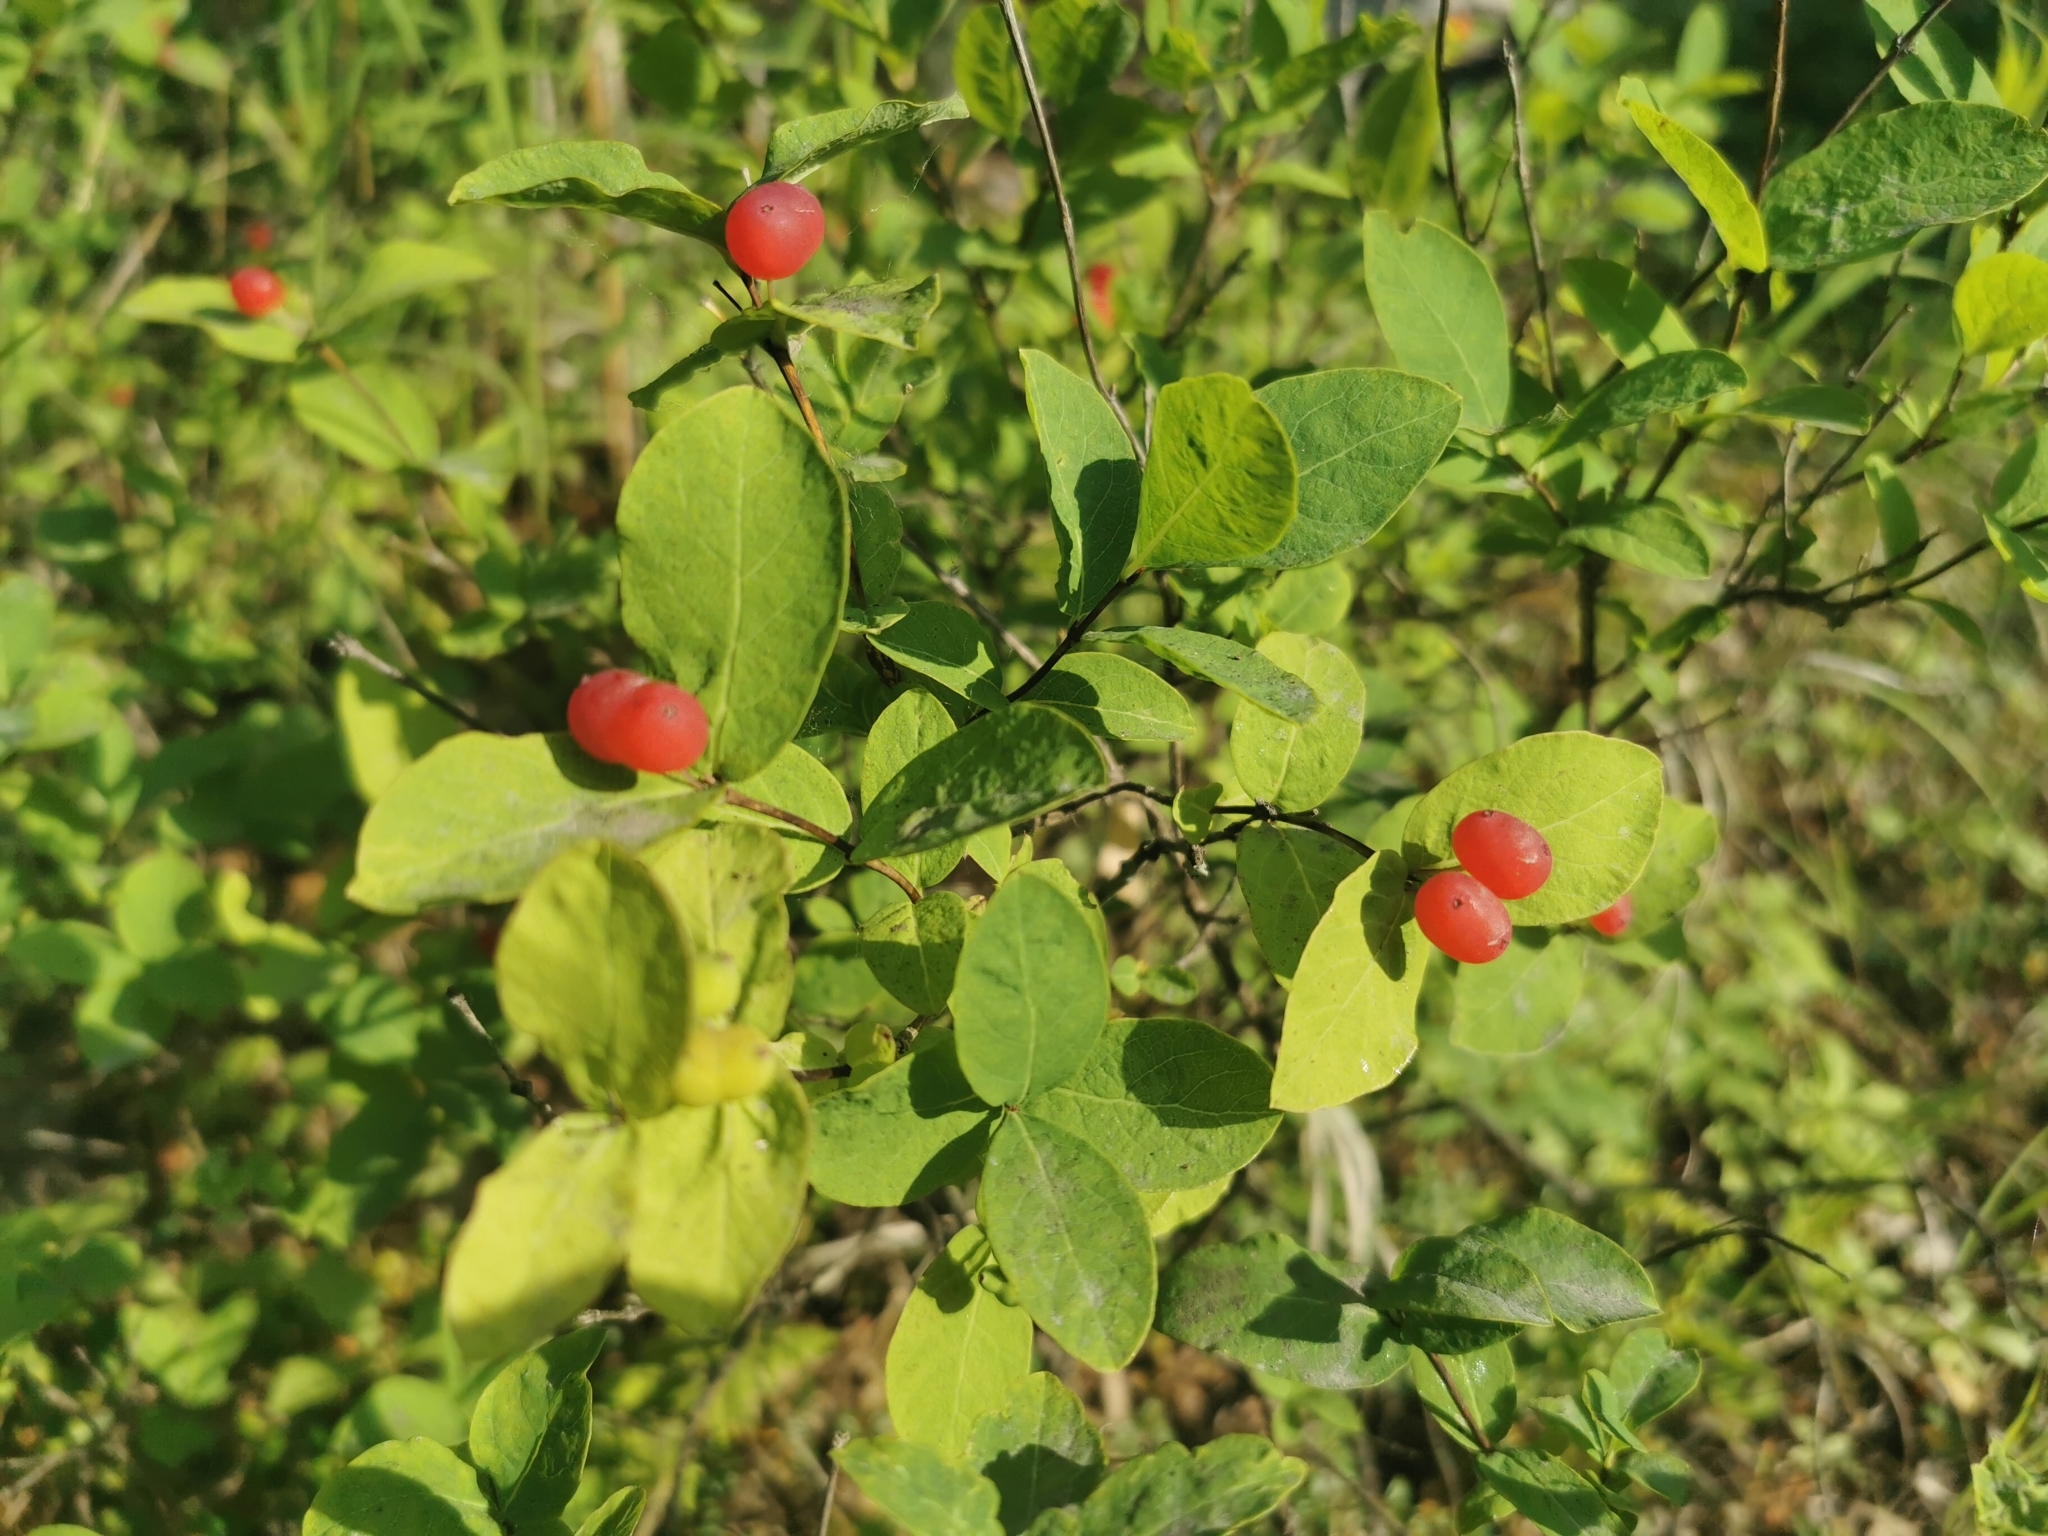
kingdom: Plantae
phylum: Tracheophyta
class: Magnoliopsida
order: Dipsacales
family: Caprifoliaceae
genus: Lonicera
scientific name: Lonicera chamissoi
